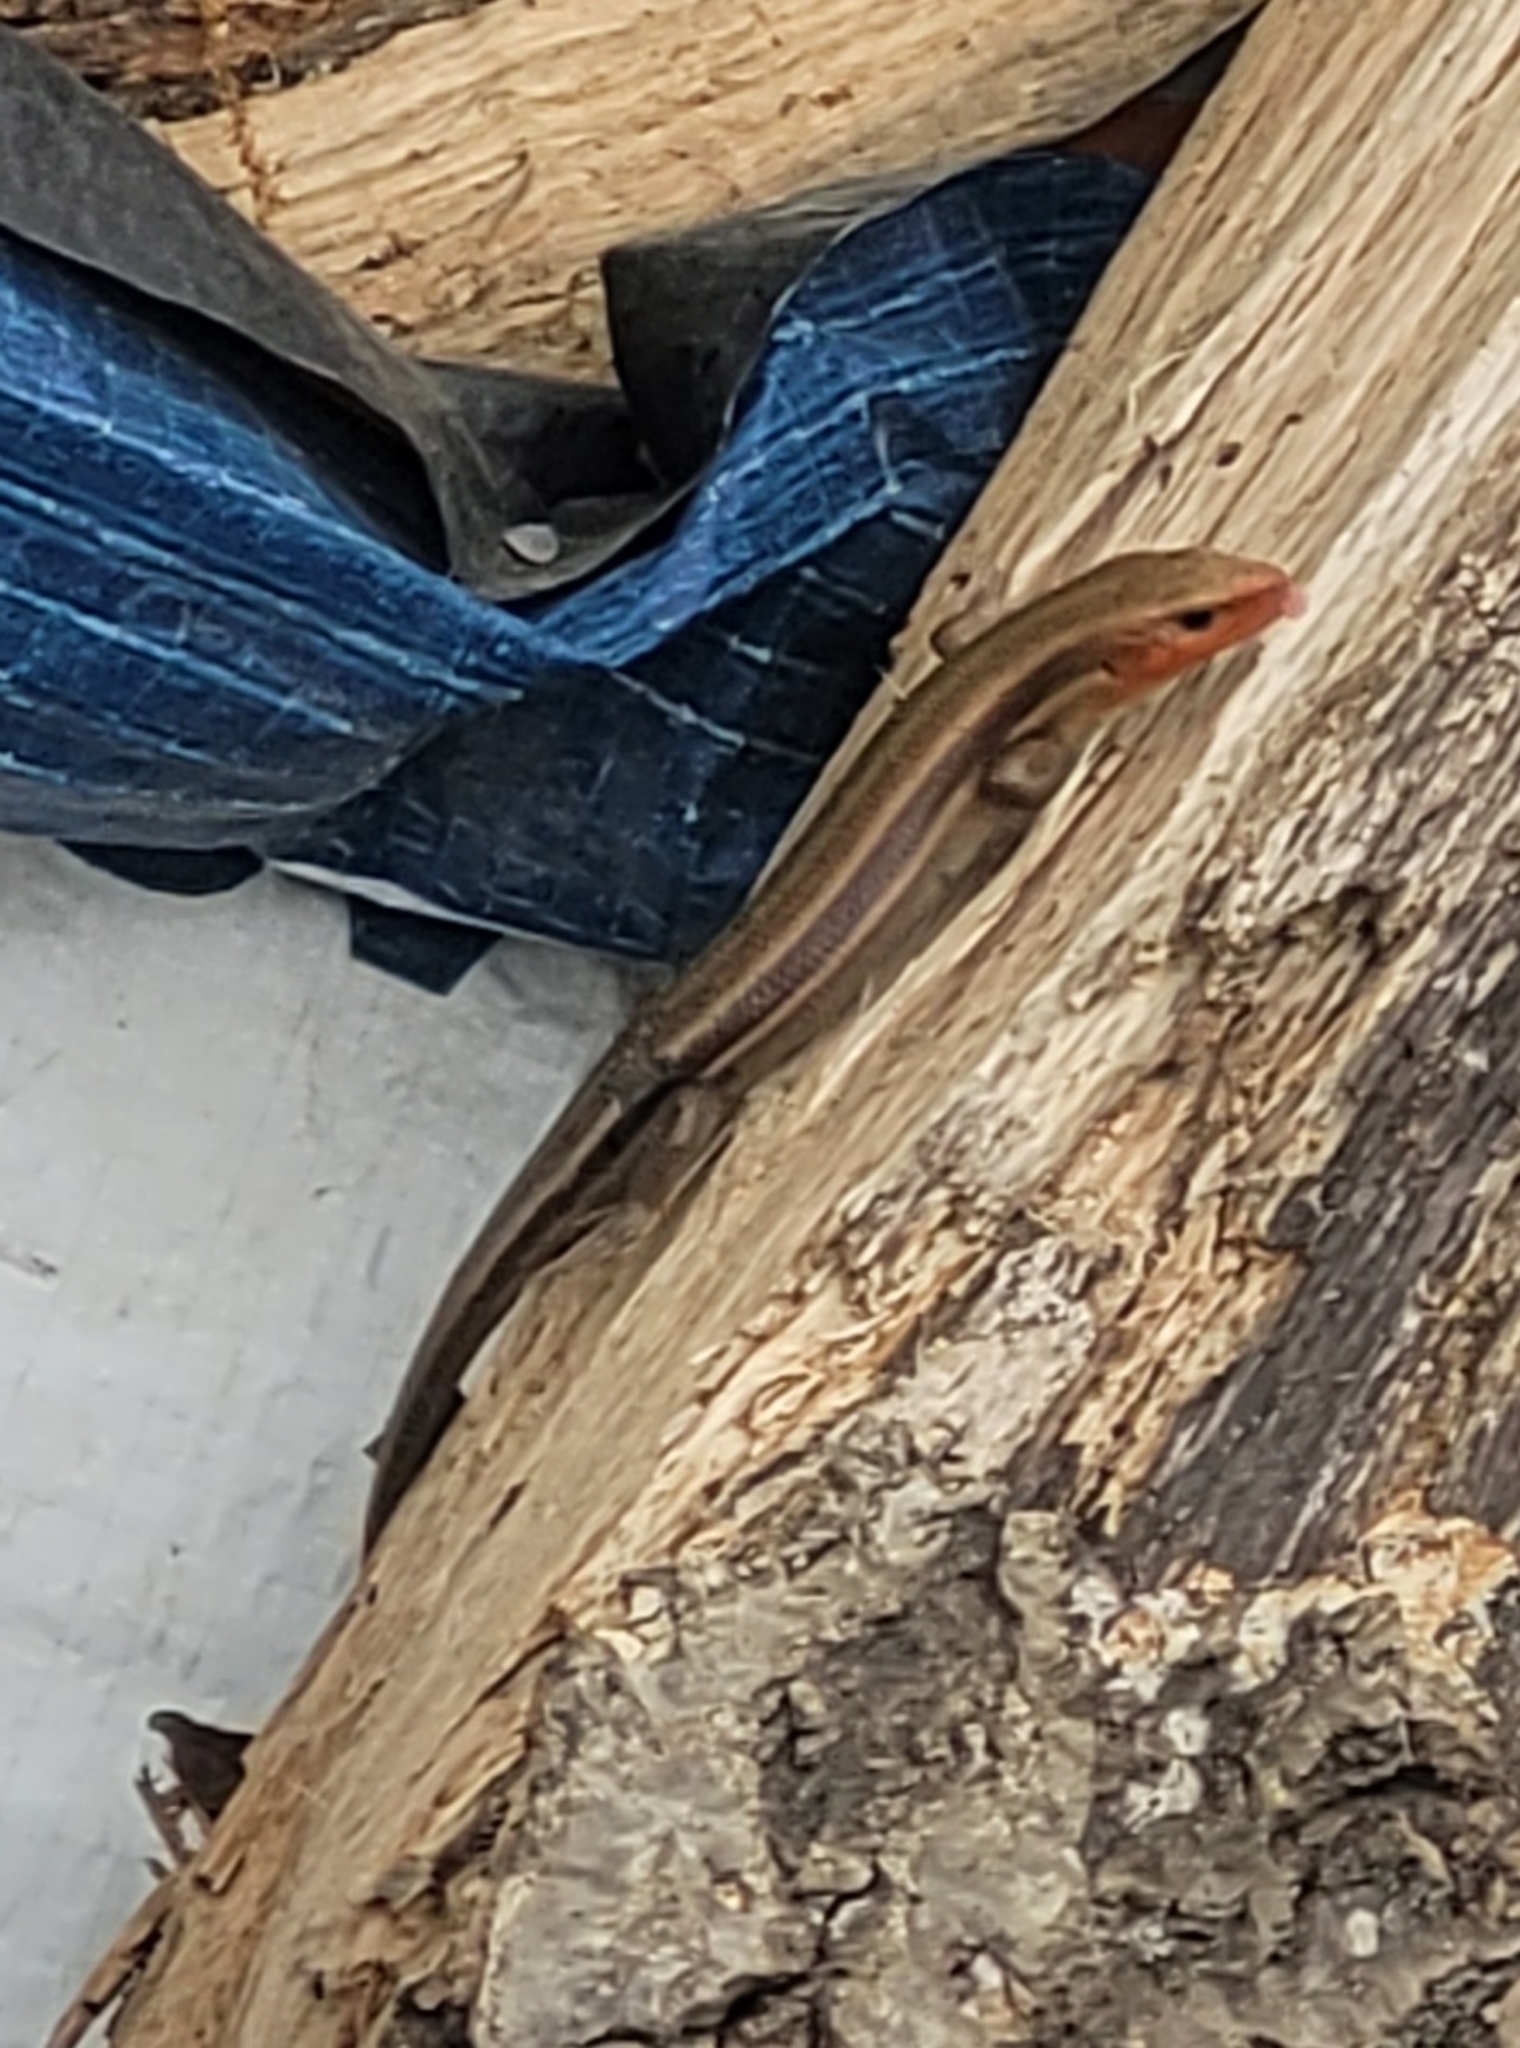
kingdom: Animalia
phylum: Chordata
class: Squamata
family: Scincidae
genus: Plestiodon
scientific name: Plestiodon fasciatus
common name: Five-lined skink
